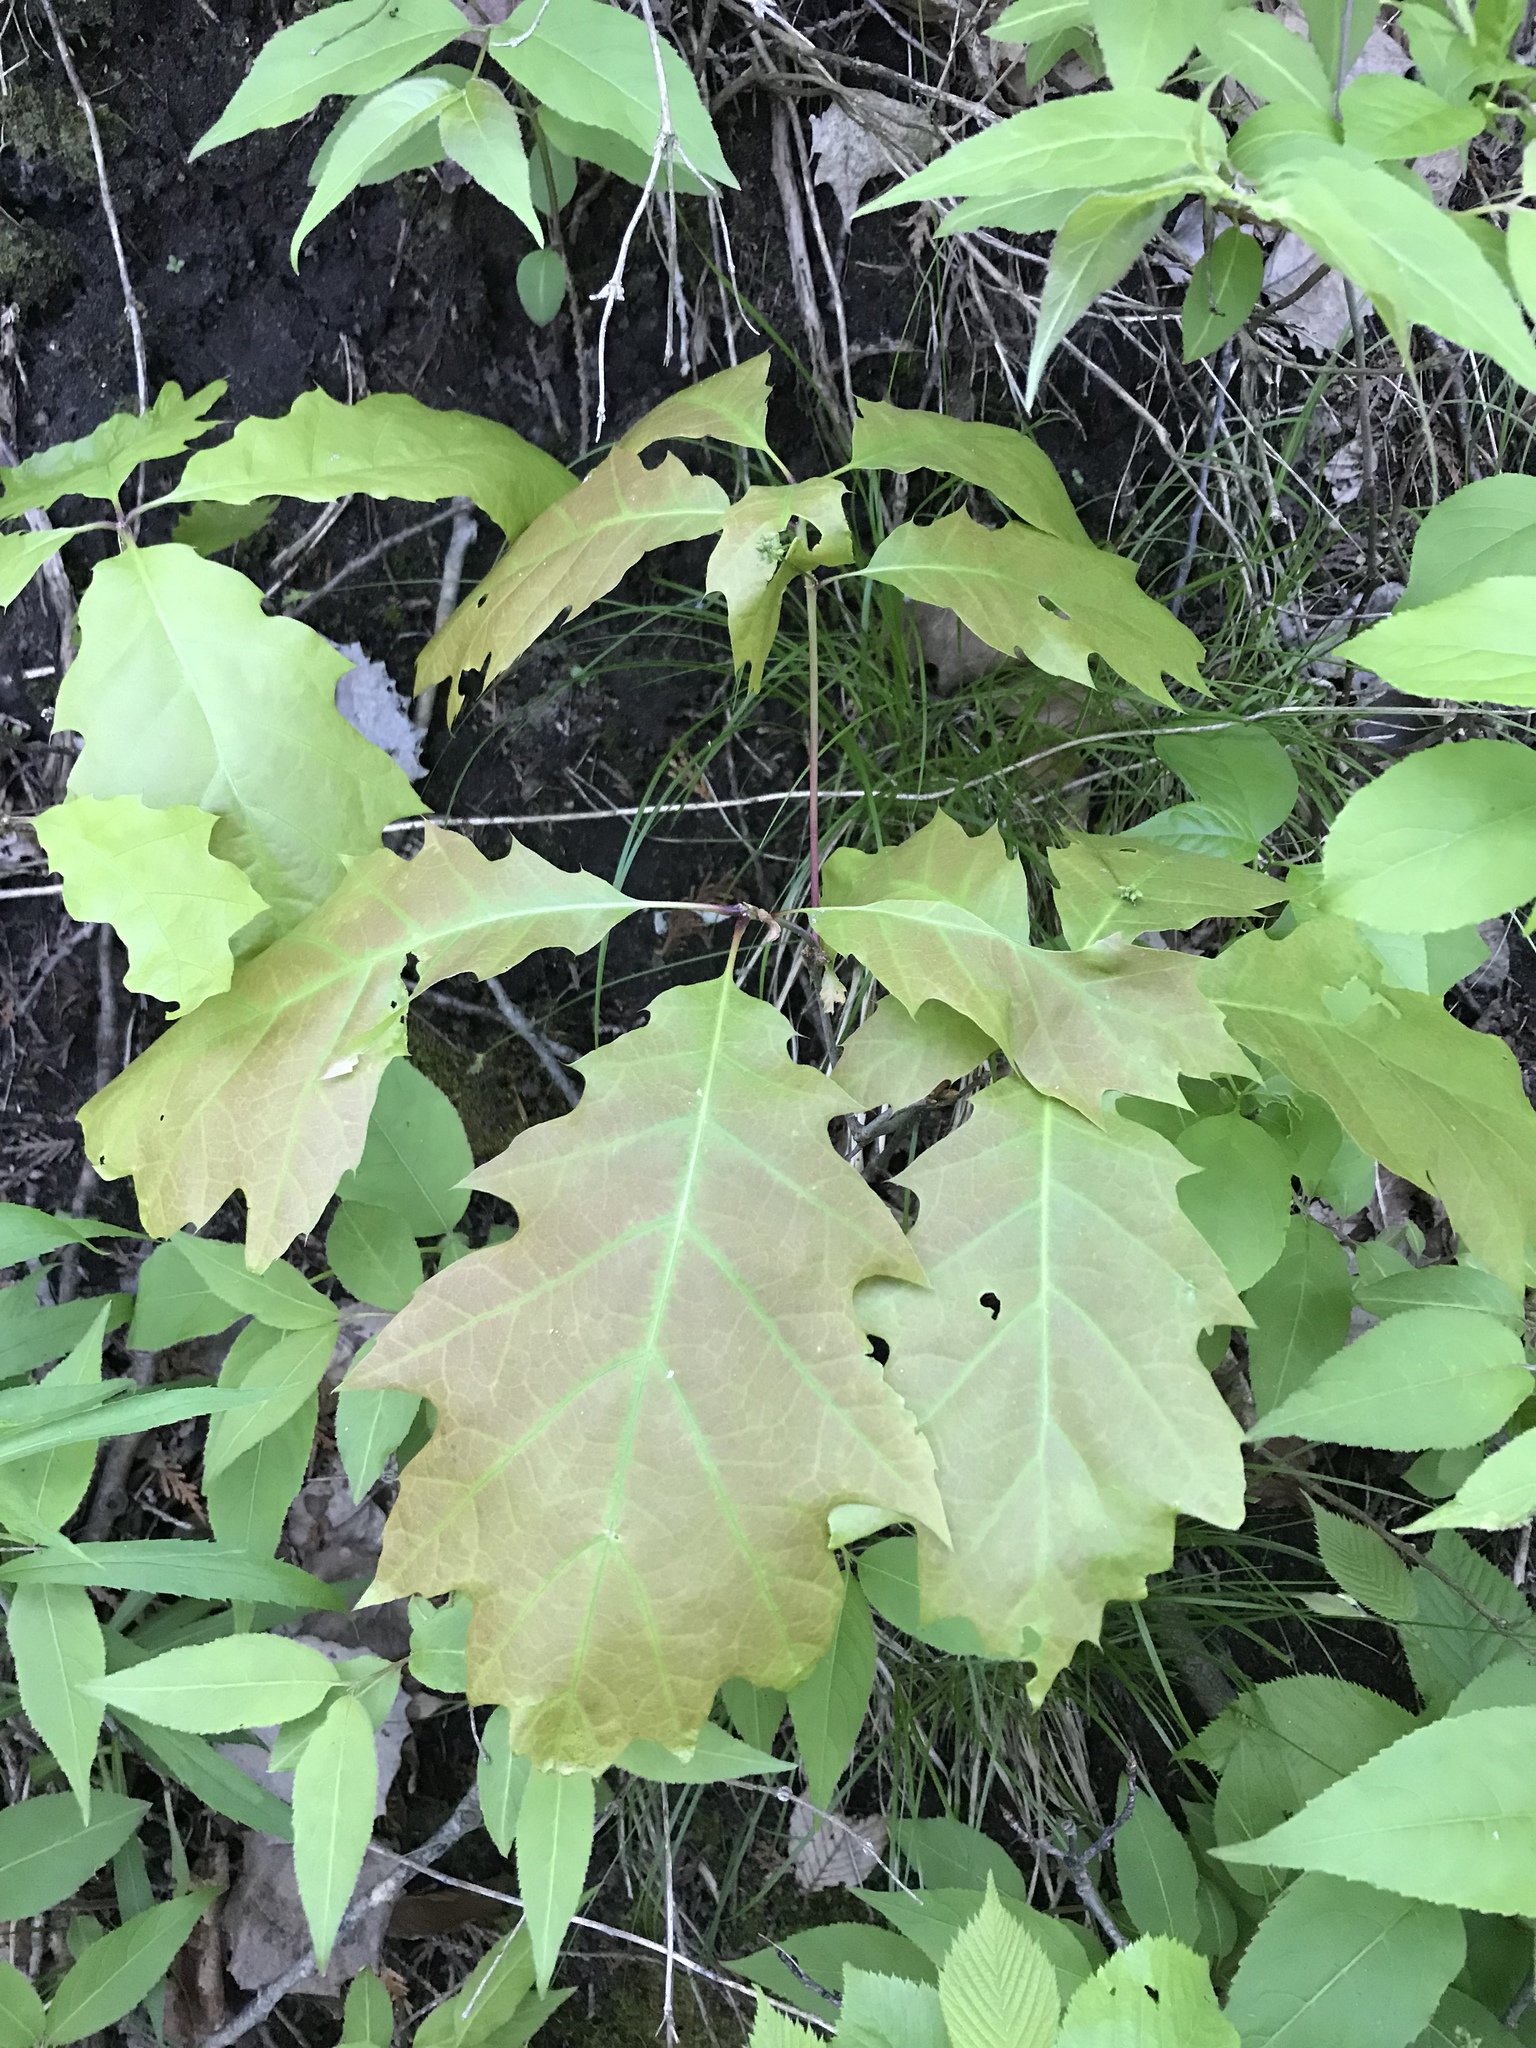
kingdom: Plantae
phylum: Tracheophyta
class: Magnoliopsida
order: Fagales
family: Fagaceae
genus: Quercus
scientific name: Quercus rubra
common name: Red oak
